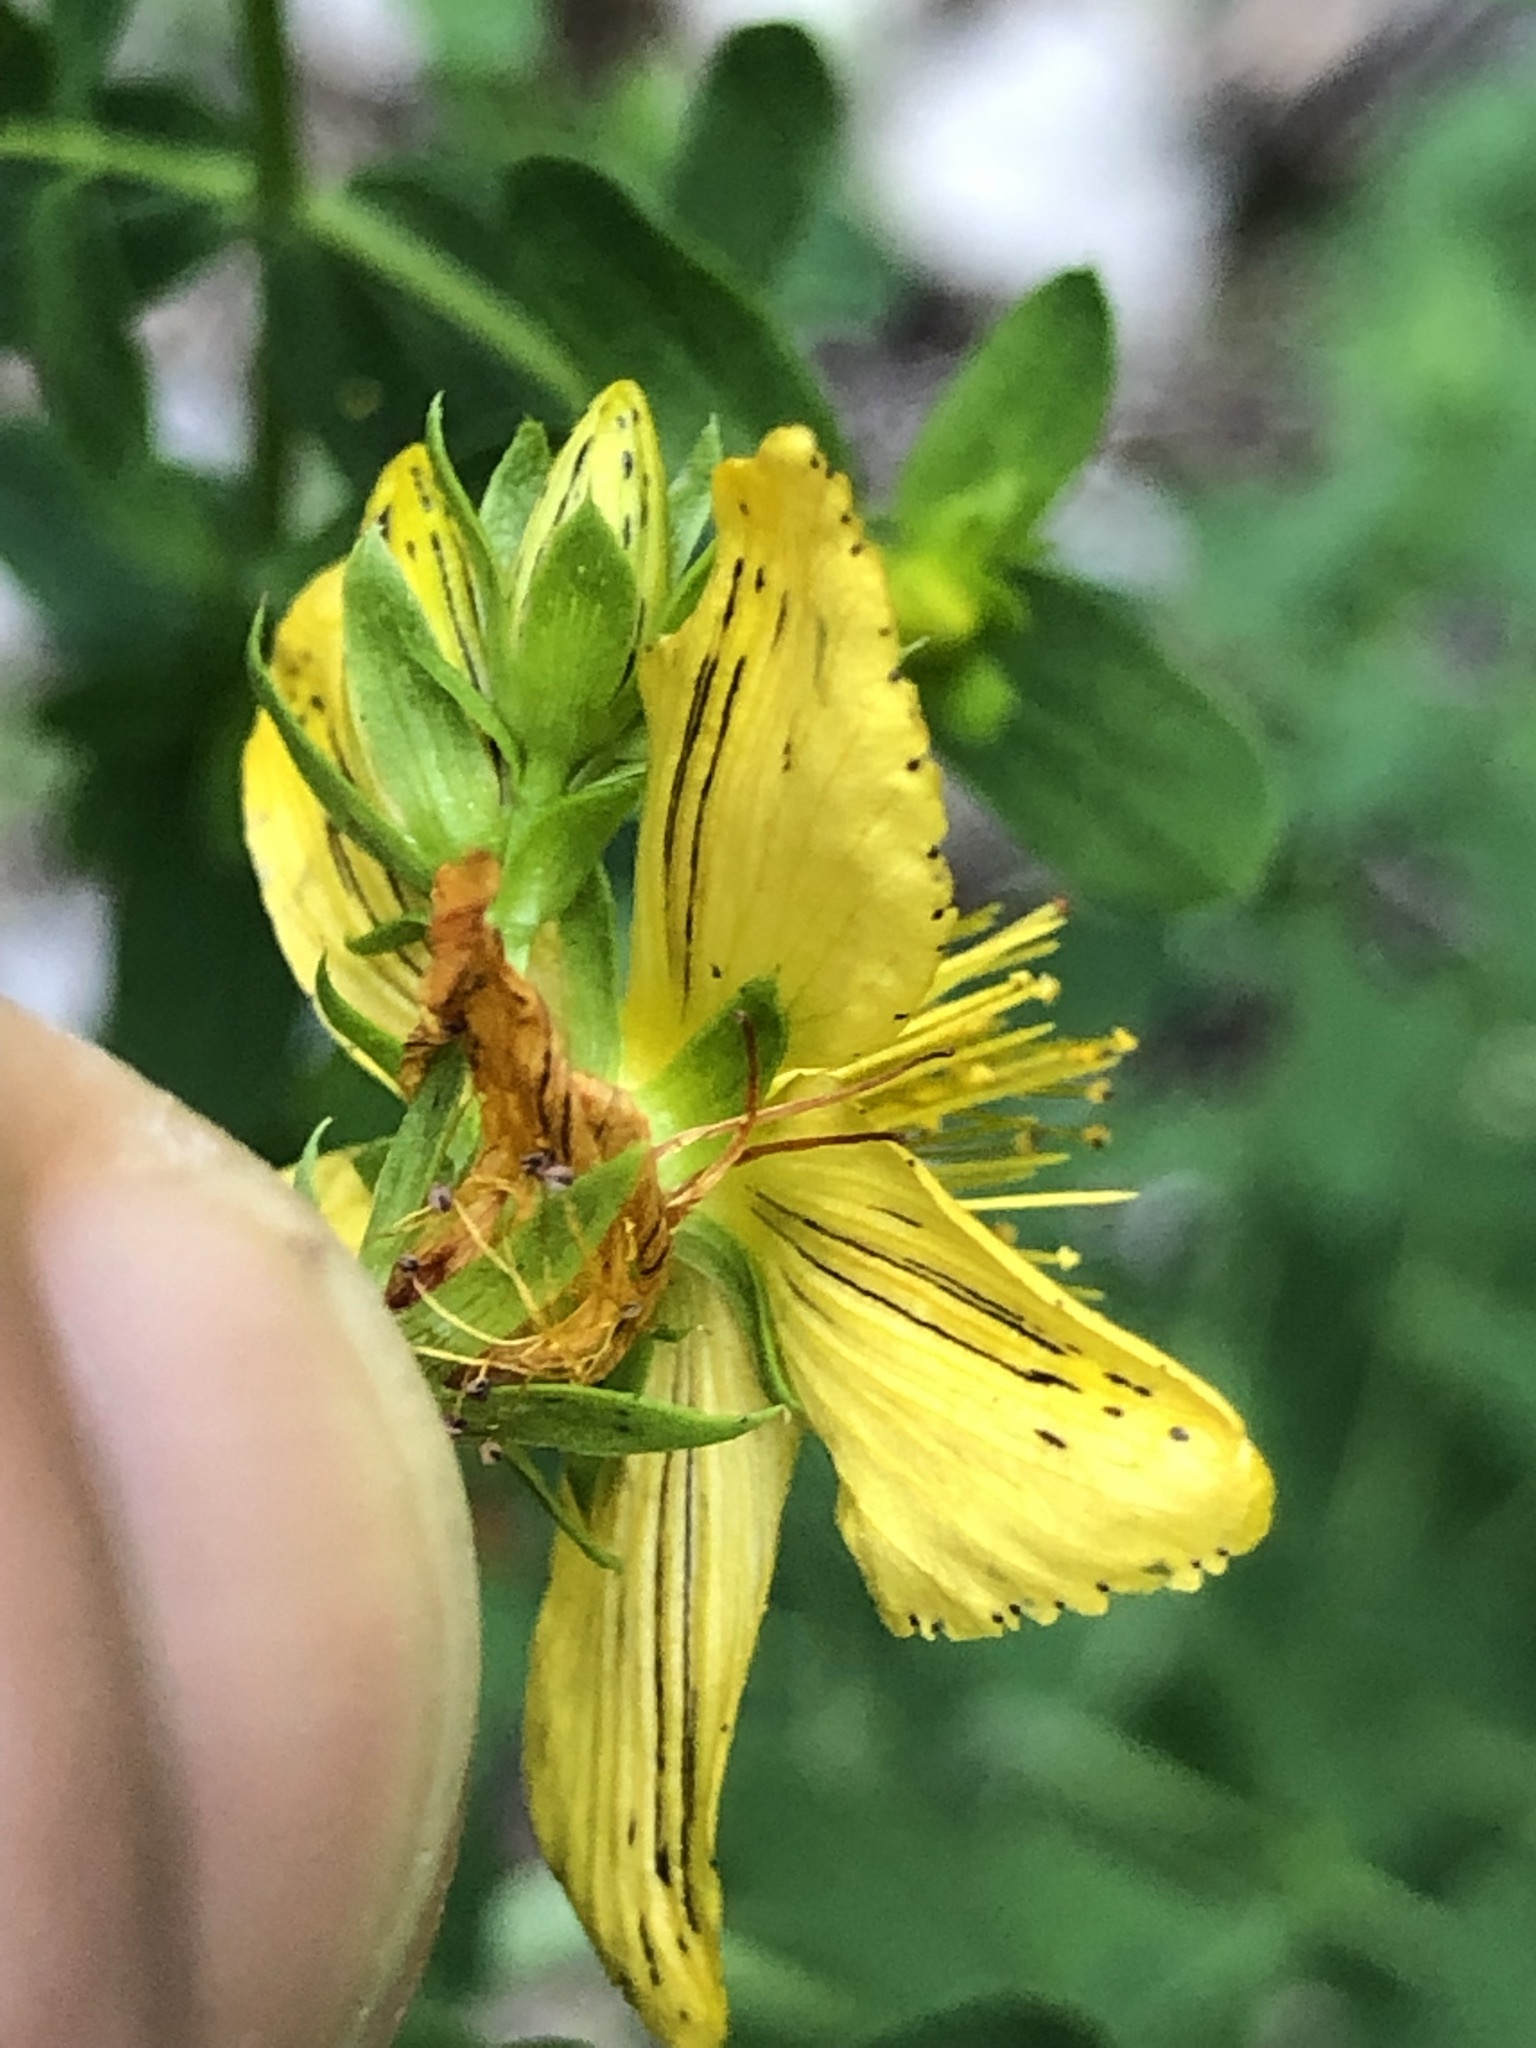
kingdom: Plantae
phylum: Tracheophyta
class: Magnoliopsida
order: Malpighiales
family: Hypericaceae
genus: Hypericum
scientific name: Hypericum desetangsii
